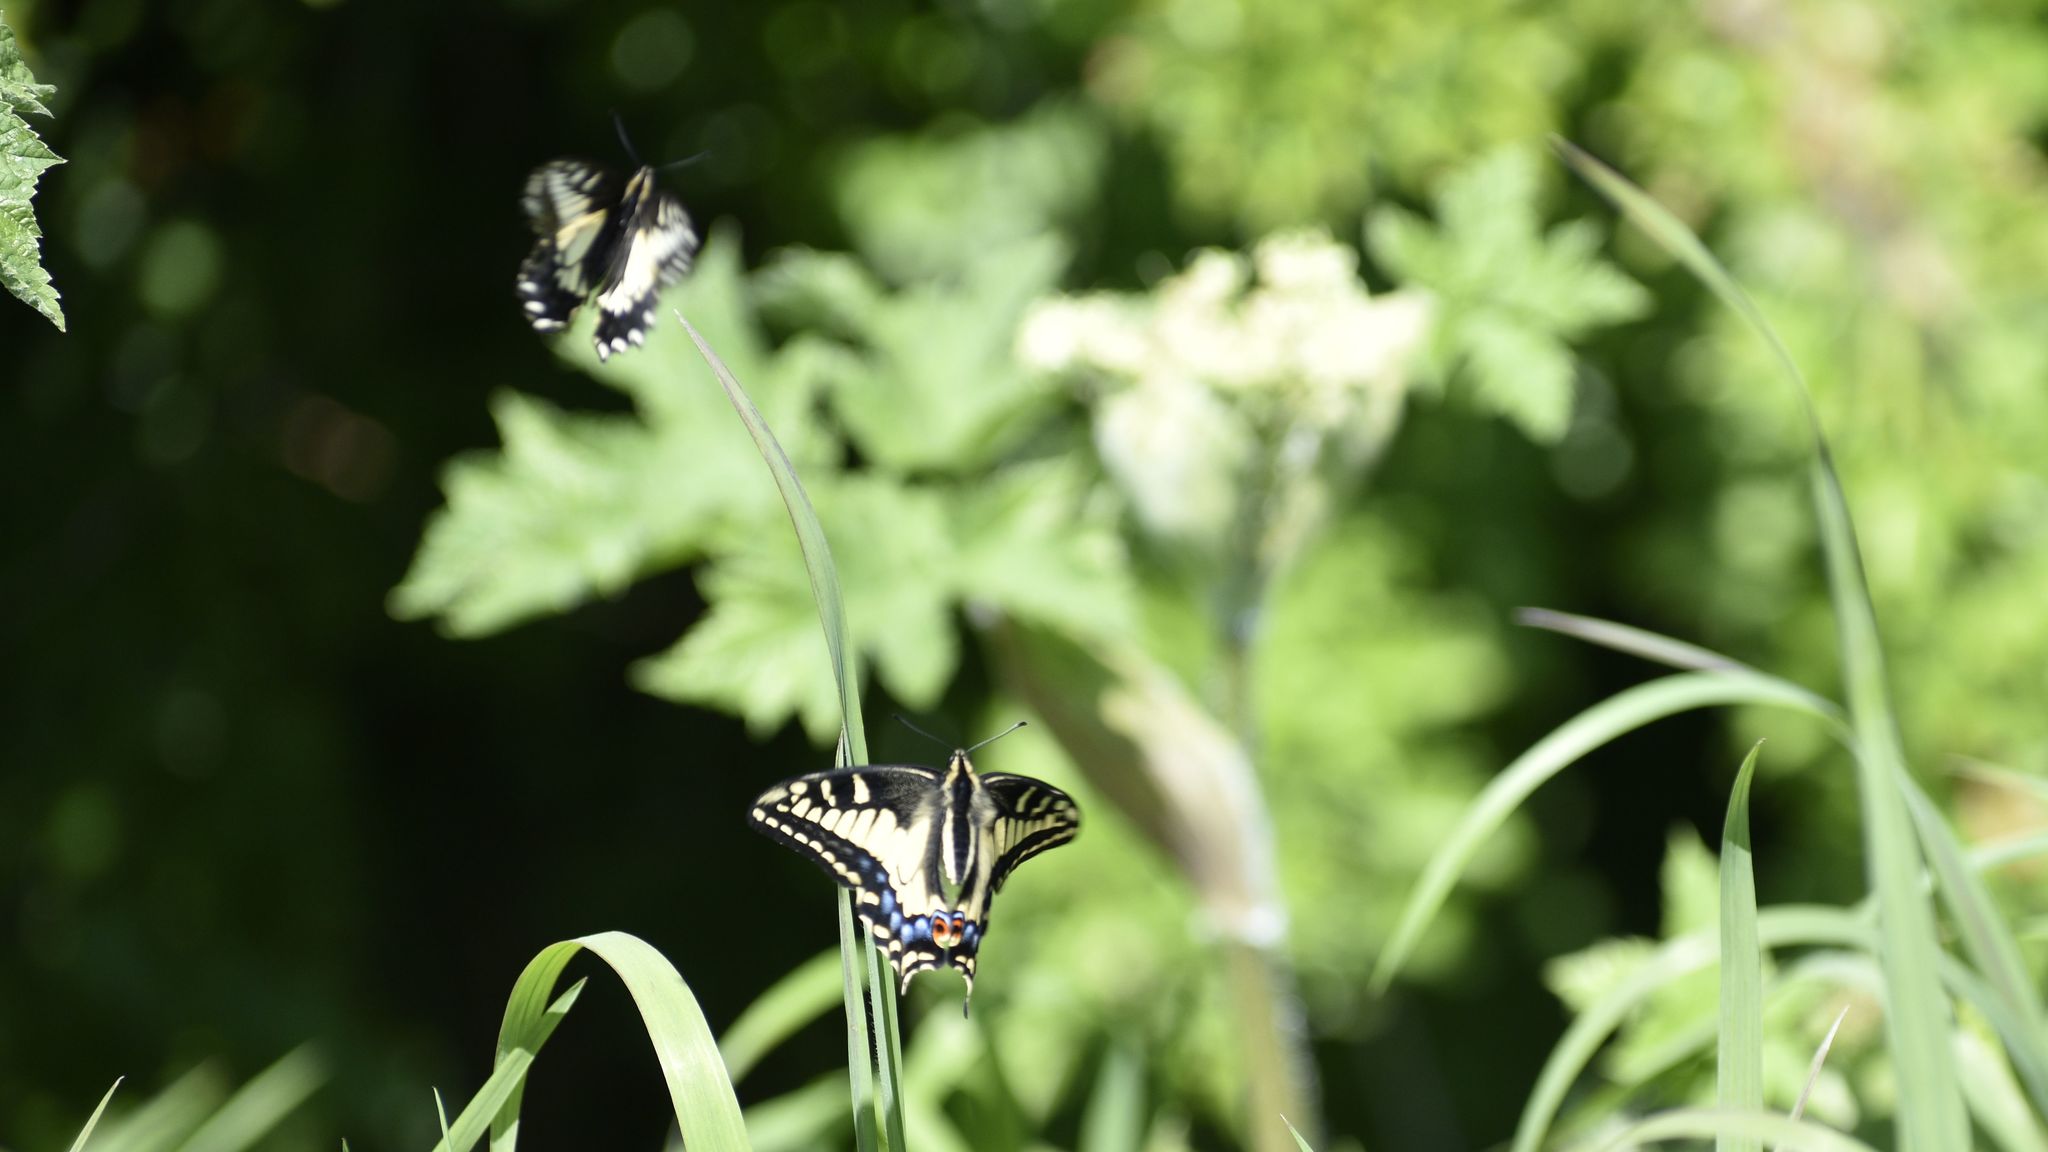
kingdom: Animalia
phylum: Arthropoda
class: Insecta
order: Lepidoptera
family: Papilionidae
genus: Papilio
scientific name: Papilio zelicaon
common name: Anise swallowtail
